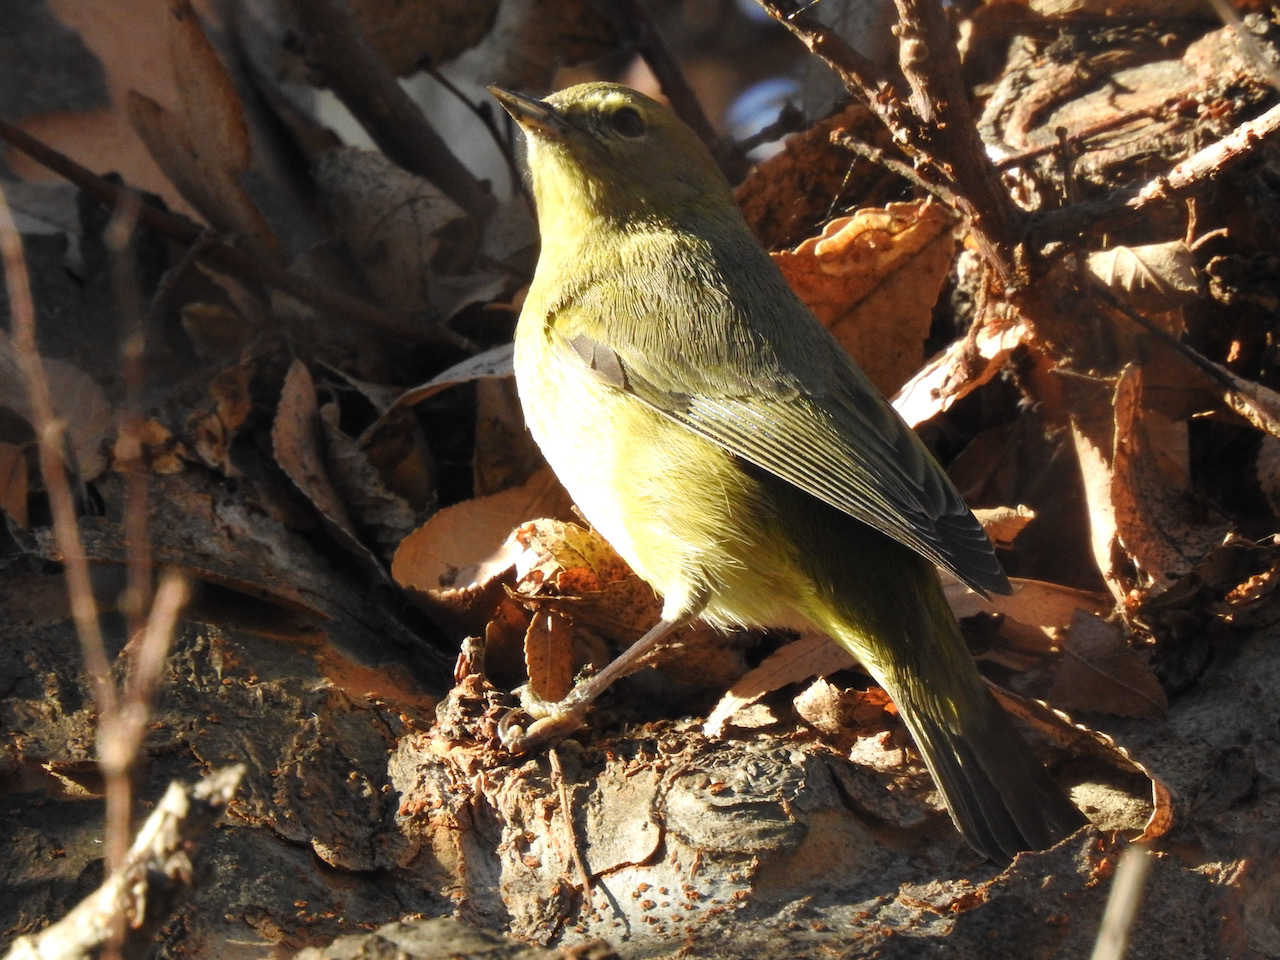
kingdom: Animalia
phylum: Chordata
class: Aves
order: Passeriformes
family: Parulidae
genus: Leiothlypis
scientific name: Leiothlypis celata
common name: Orange-crowned warbler
